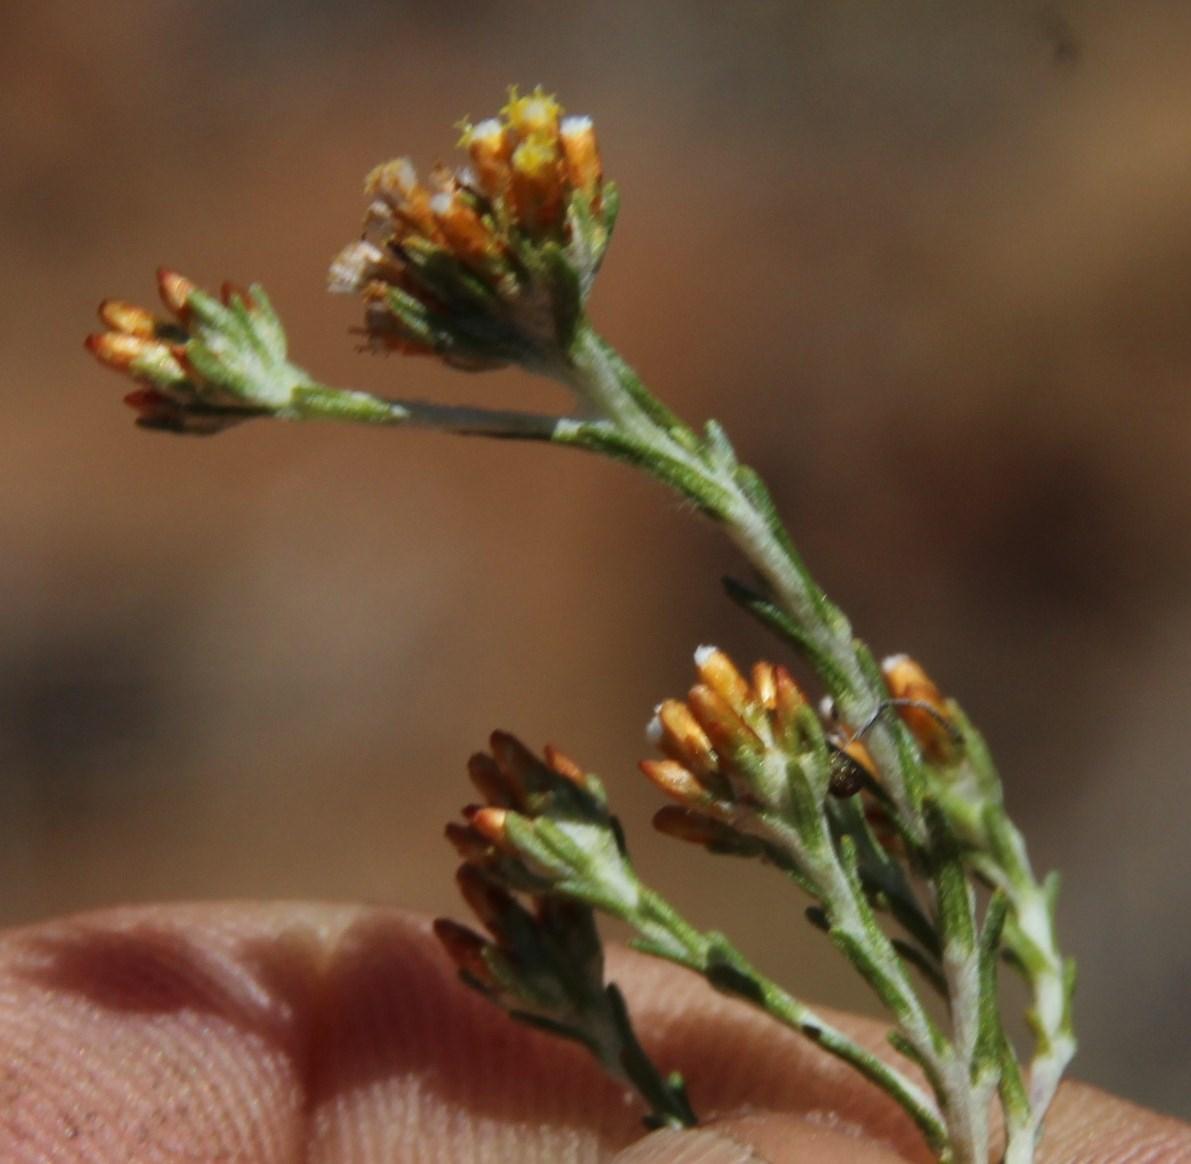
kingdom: Plantae
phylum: Tracheophyta
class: Magnoliopsida
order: Asterales
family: Asteraceae
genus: Helichrysum
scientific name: Helichrysum asperum
